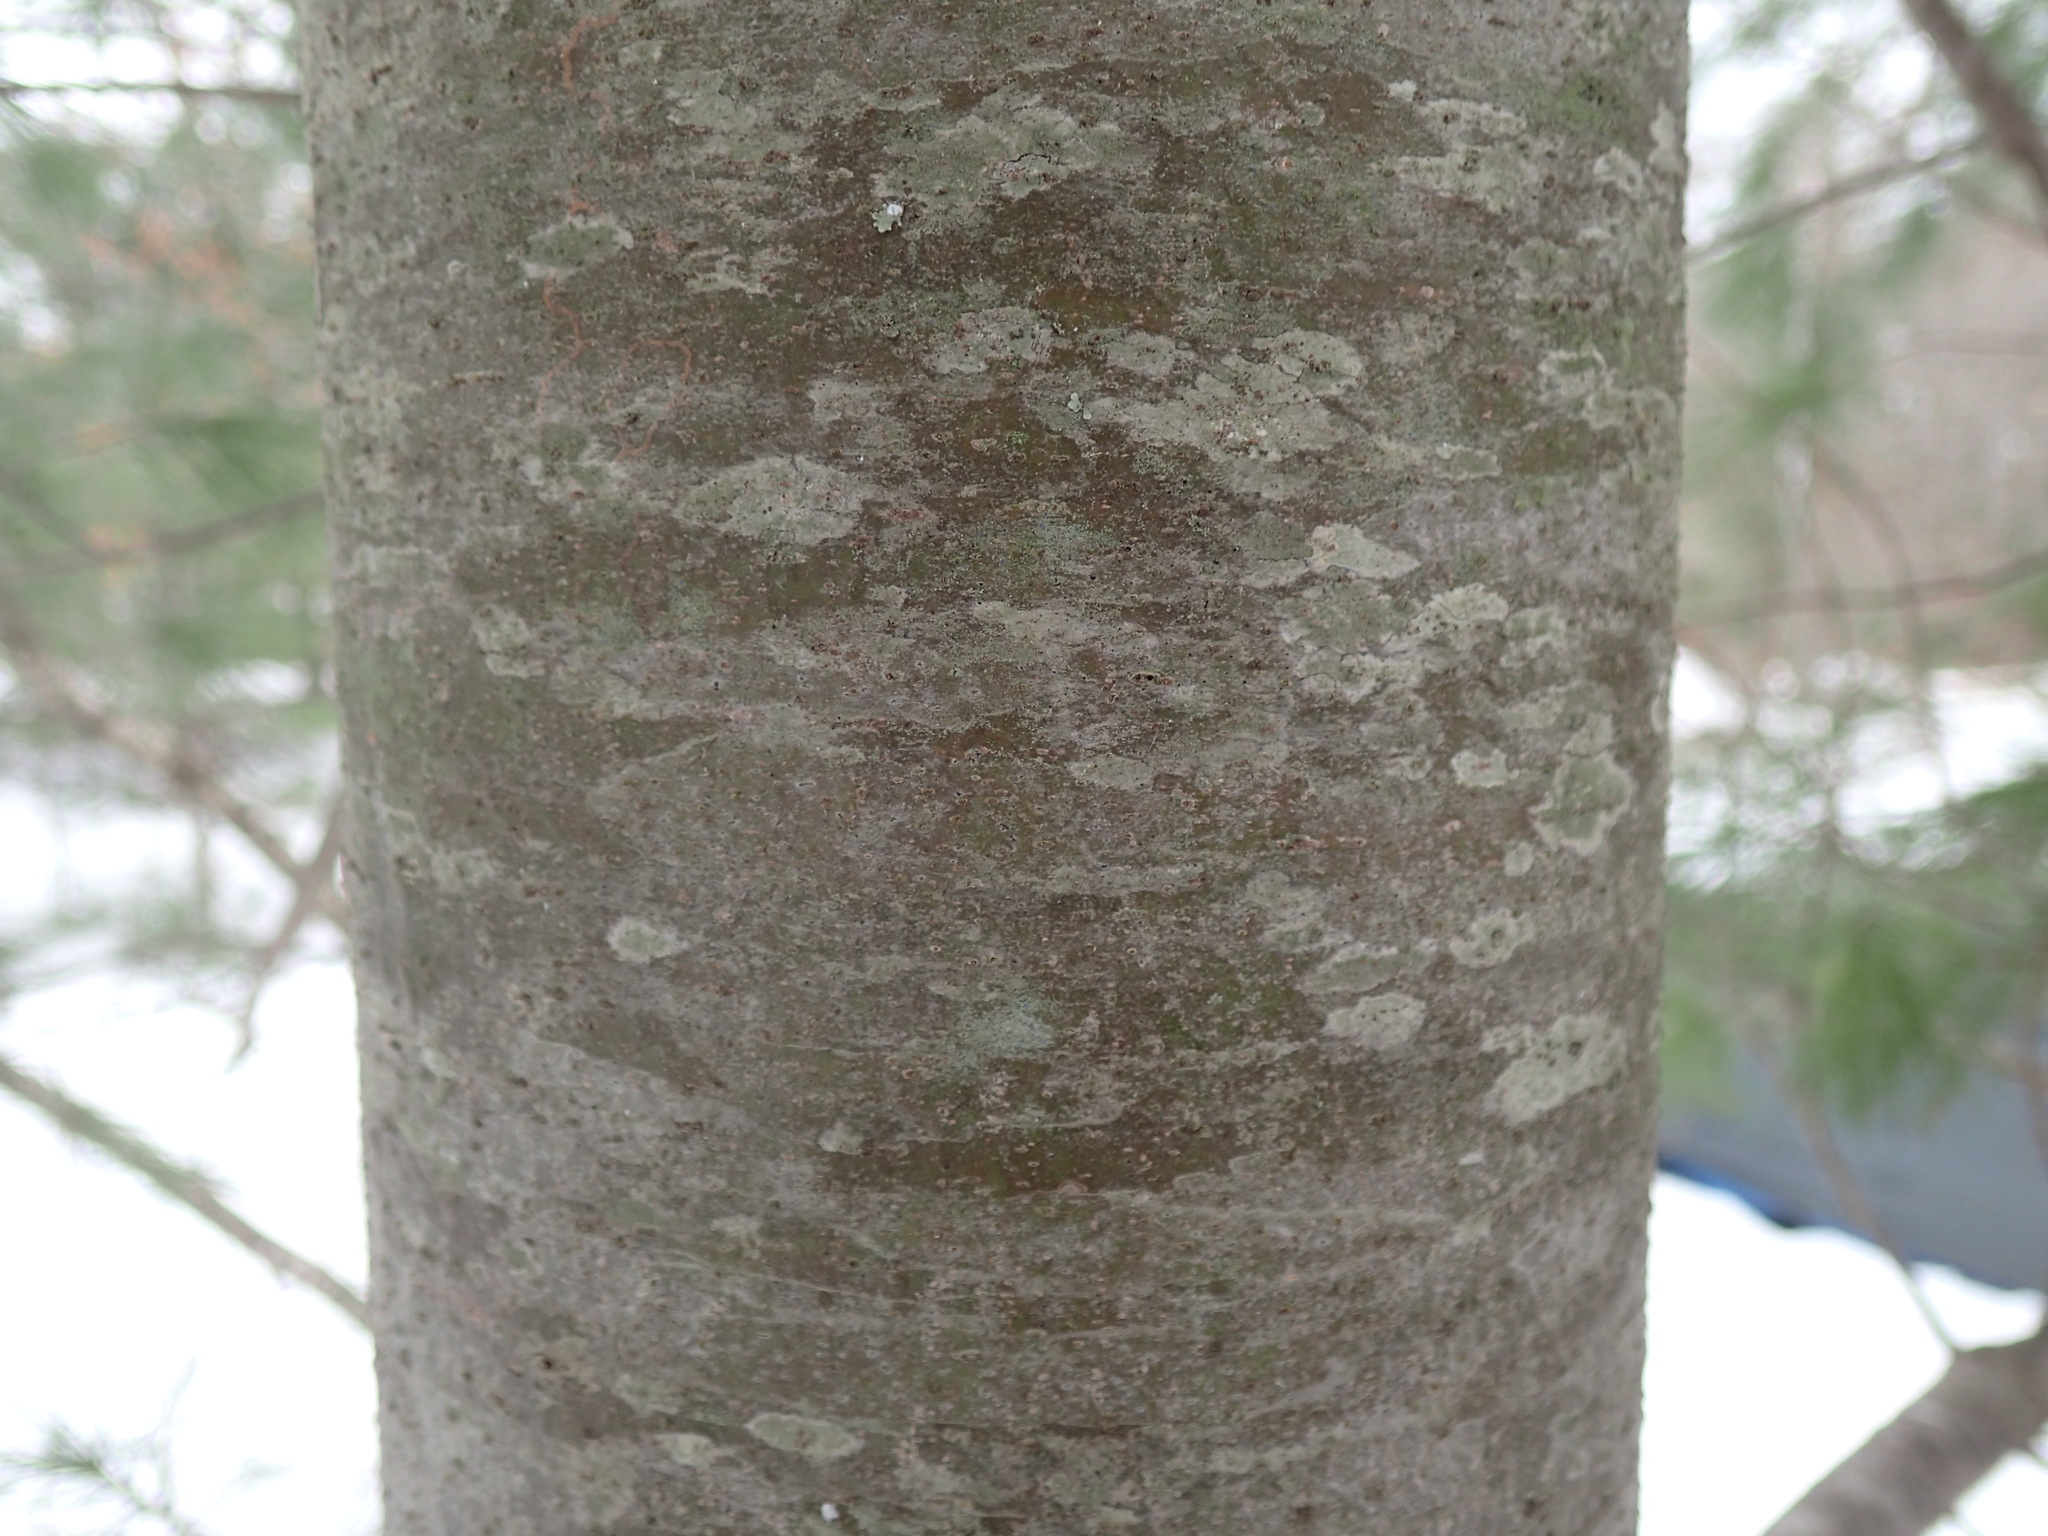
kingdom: Plantae
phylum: Tracheophyta
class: Pinopsida
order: Pinales
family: Pinaceae
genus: Pinus
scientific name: Pinus strobus
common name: Weymouth pine
